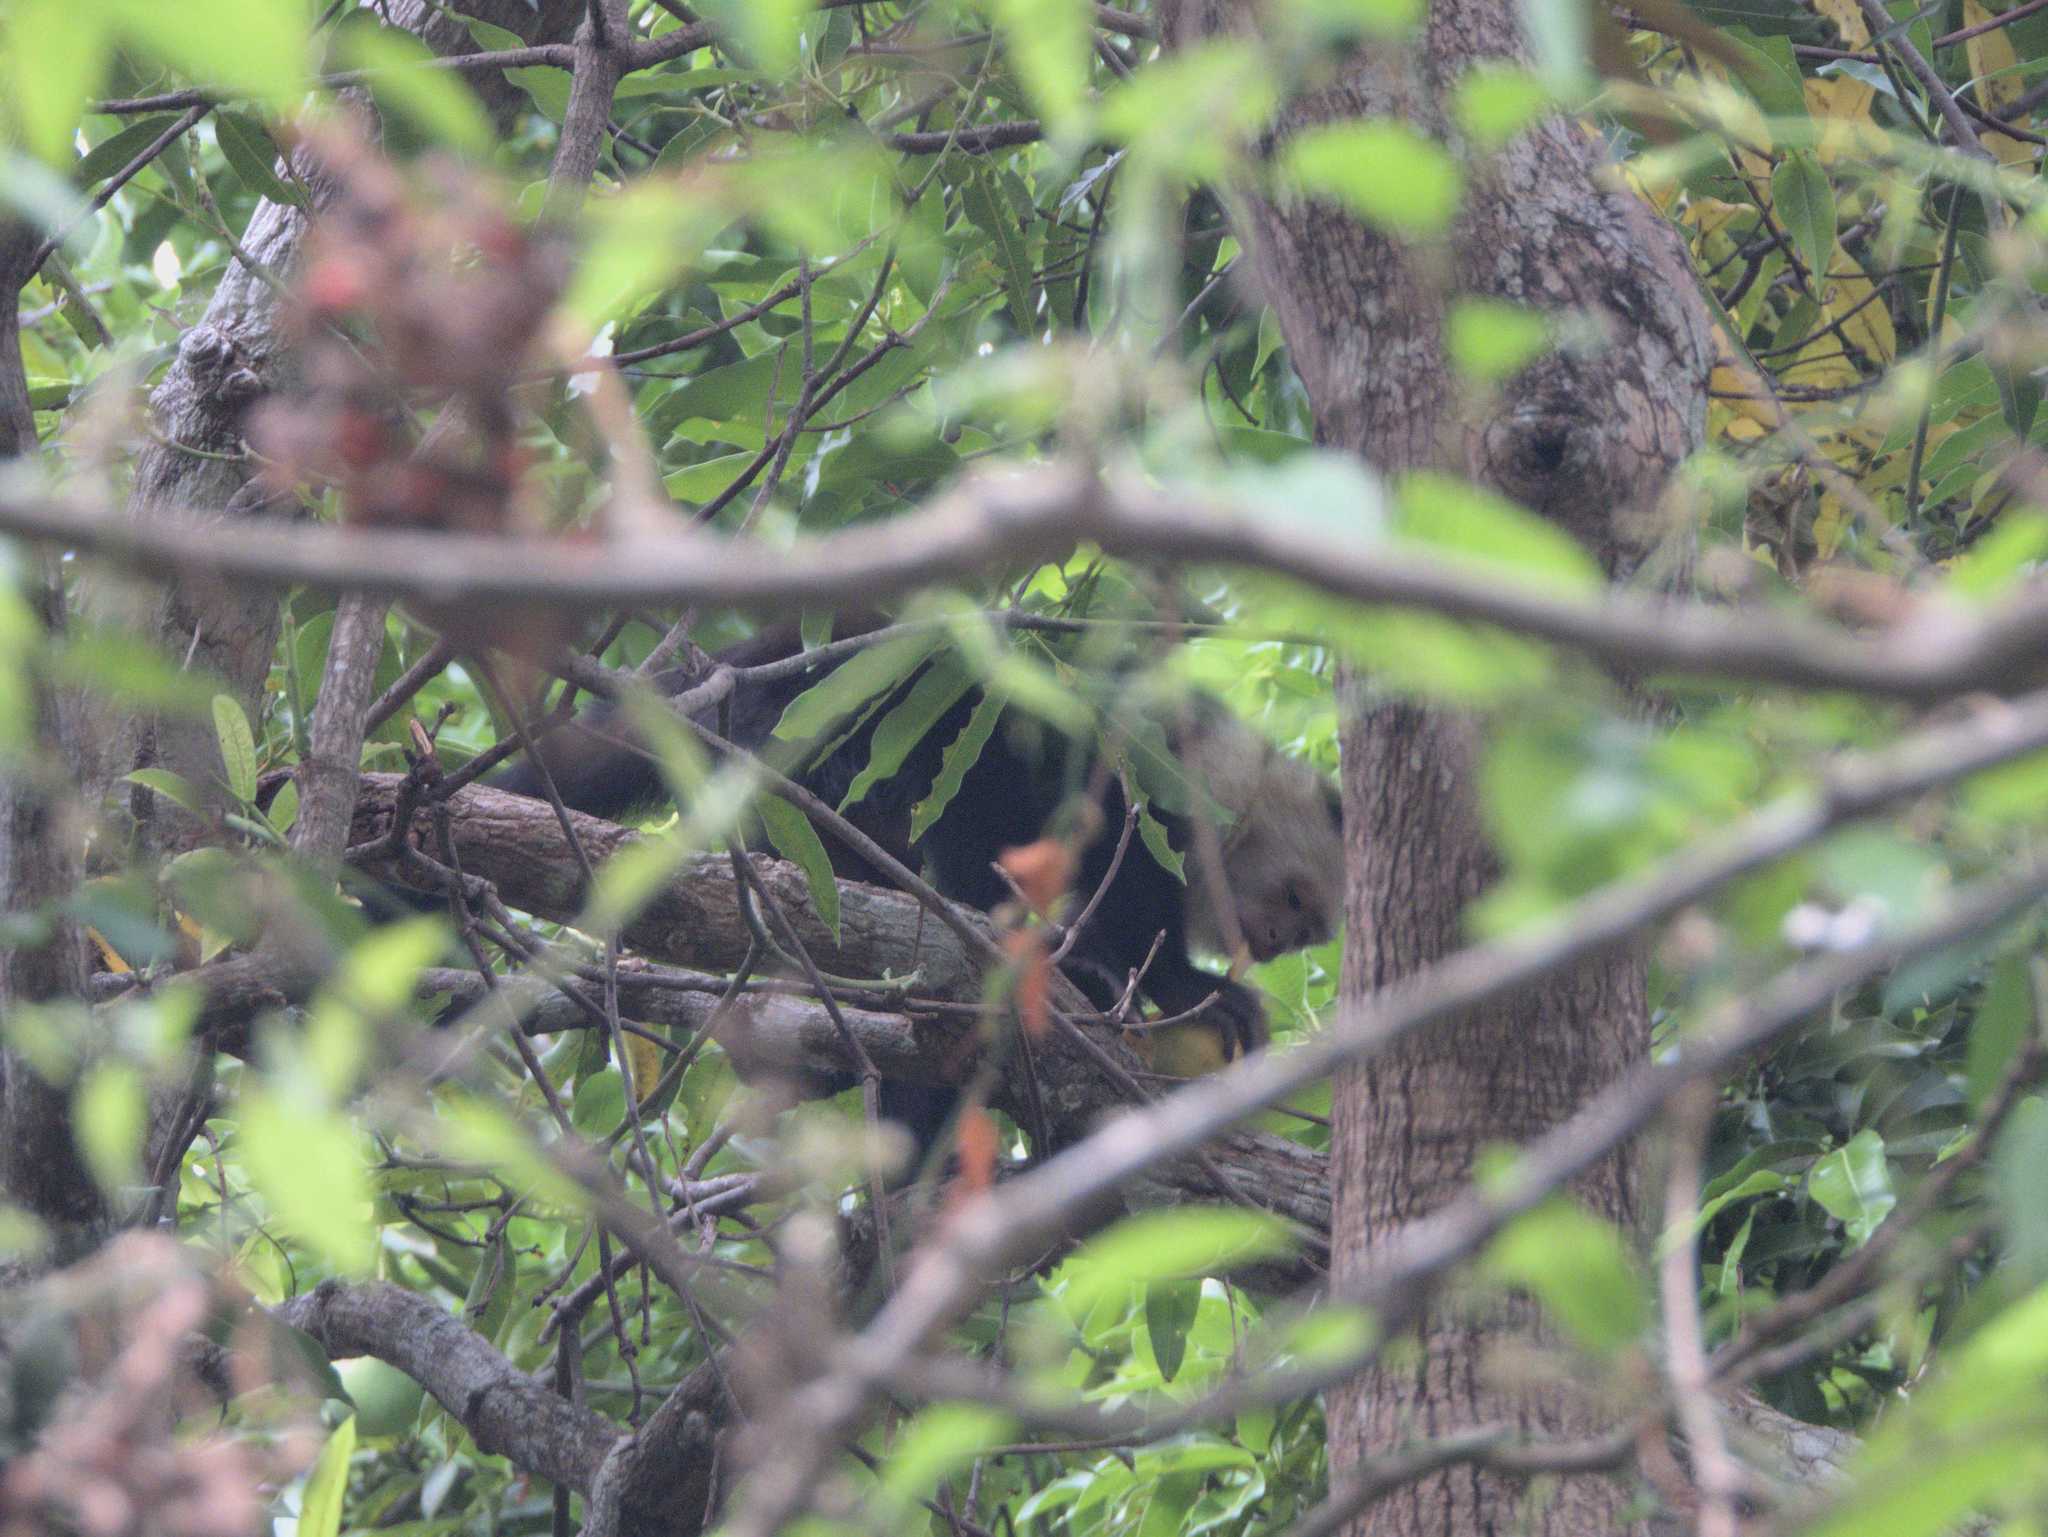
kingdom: Animalia
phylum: Chordata
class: Mammalia
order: Primates
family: Cebidae
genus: Cebus
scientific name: Cebus imitator
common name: Panamanian white-faced capuchin
